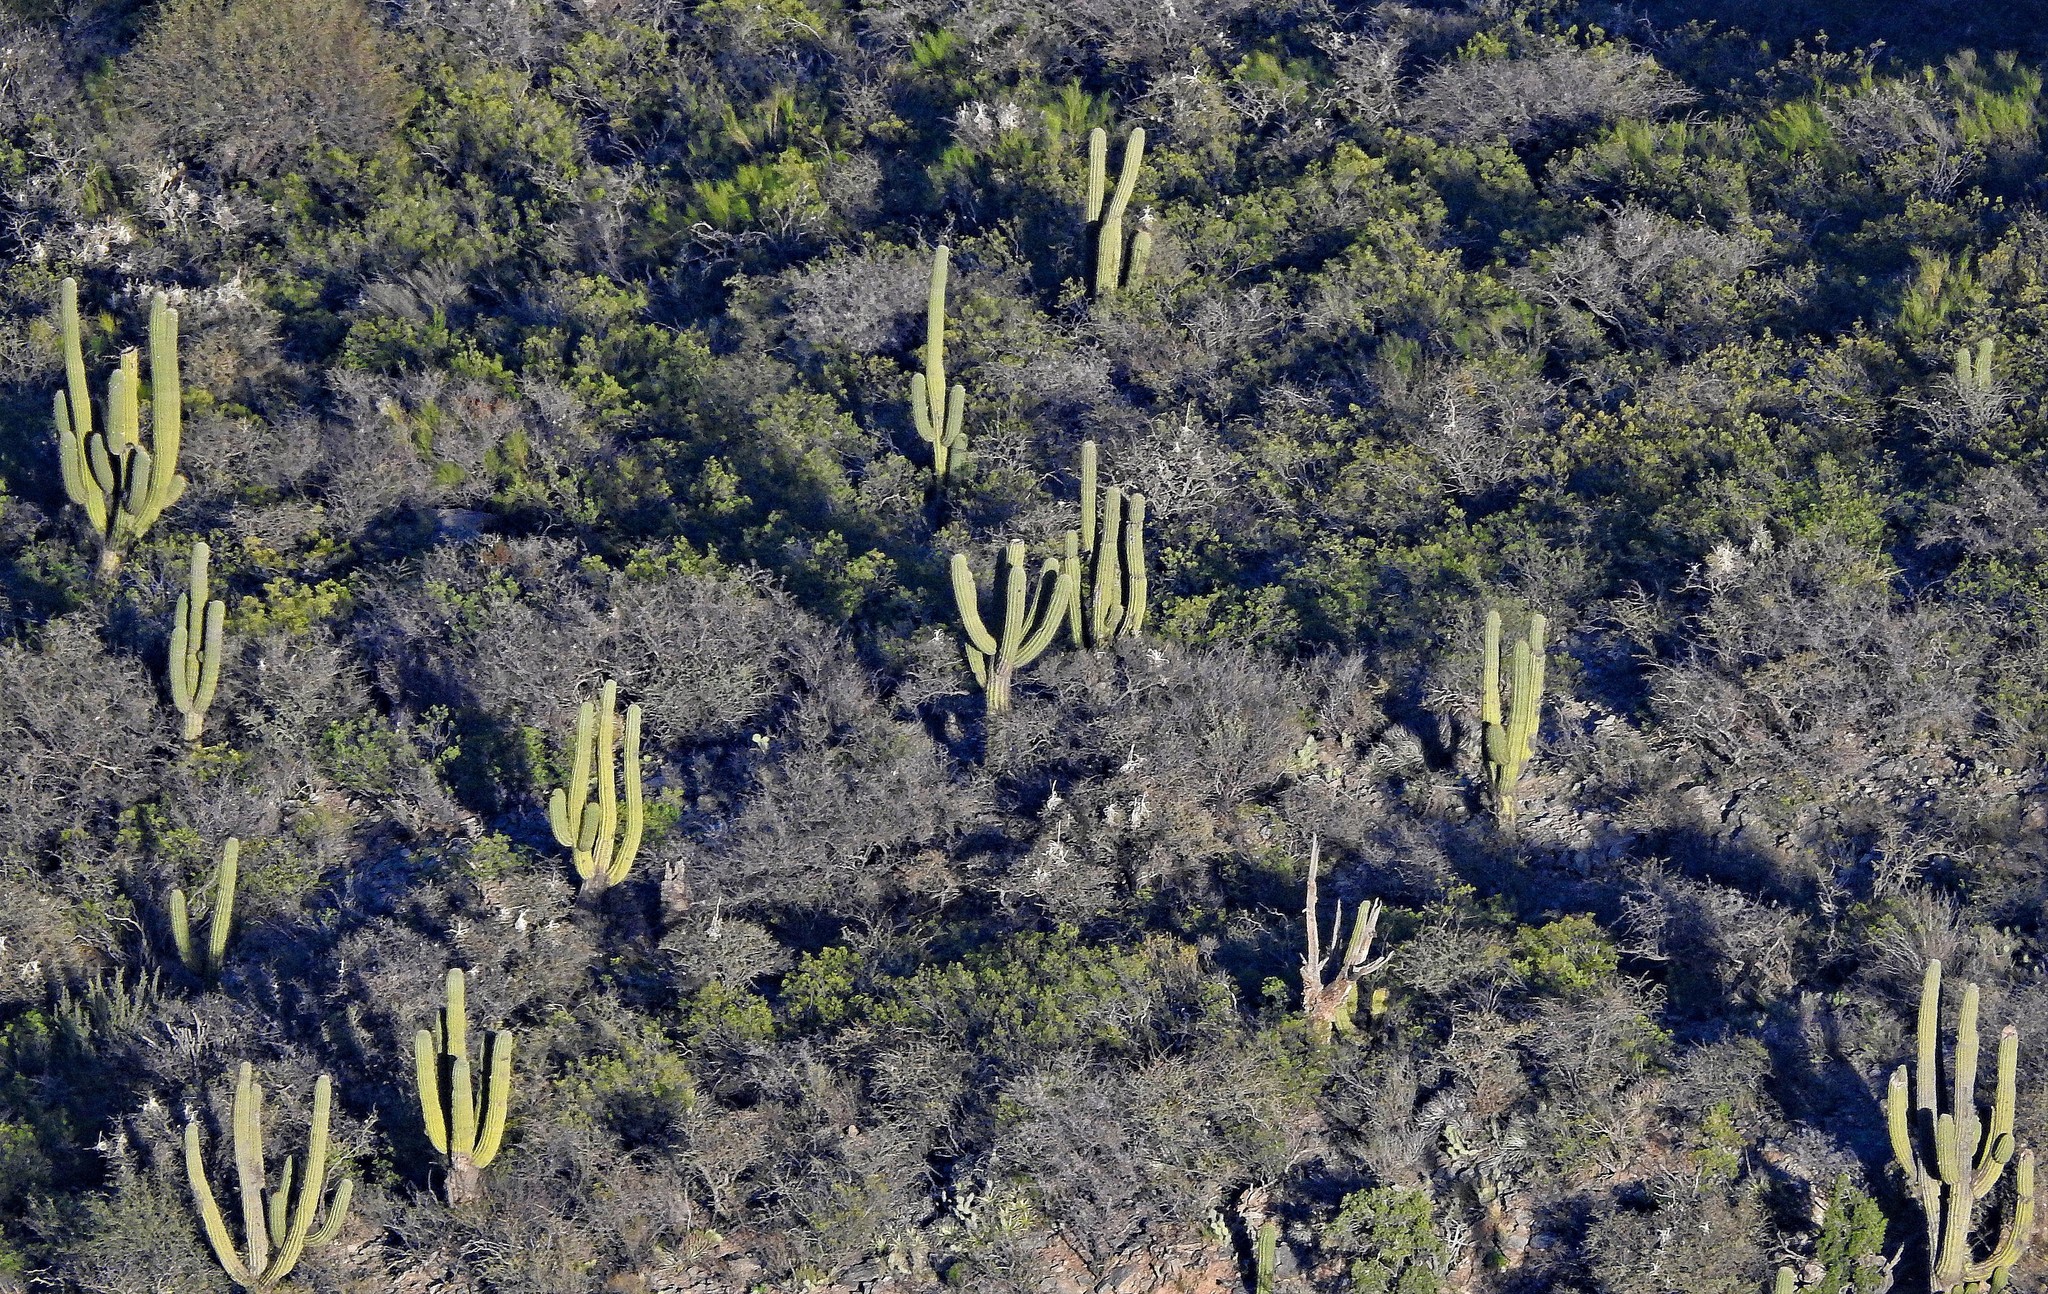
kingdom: Plantae
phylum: Tracheophyta
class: Magnoliopsida
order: Caryophyllales
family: Cactaceae
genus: Leucostele
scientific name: Leucostele terscheckii
